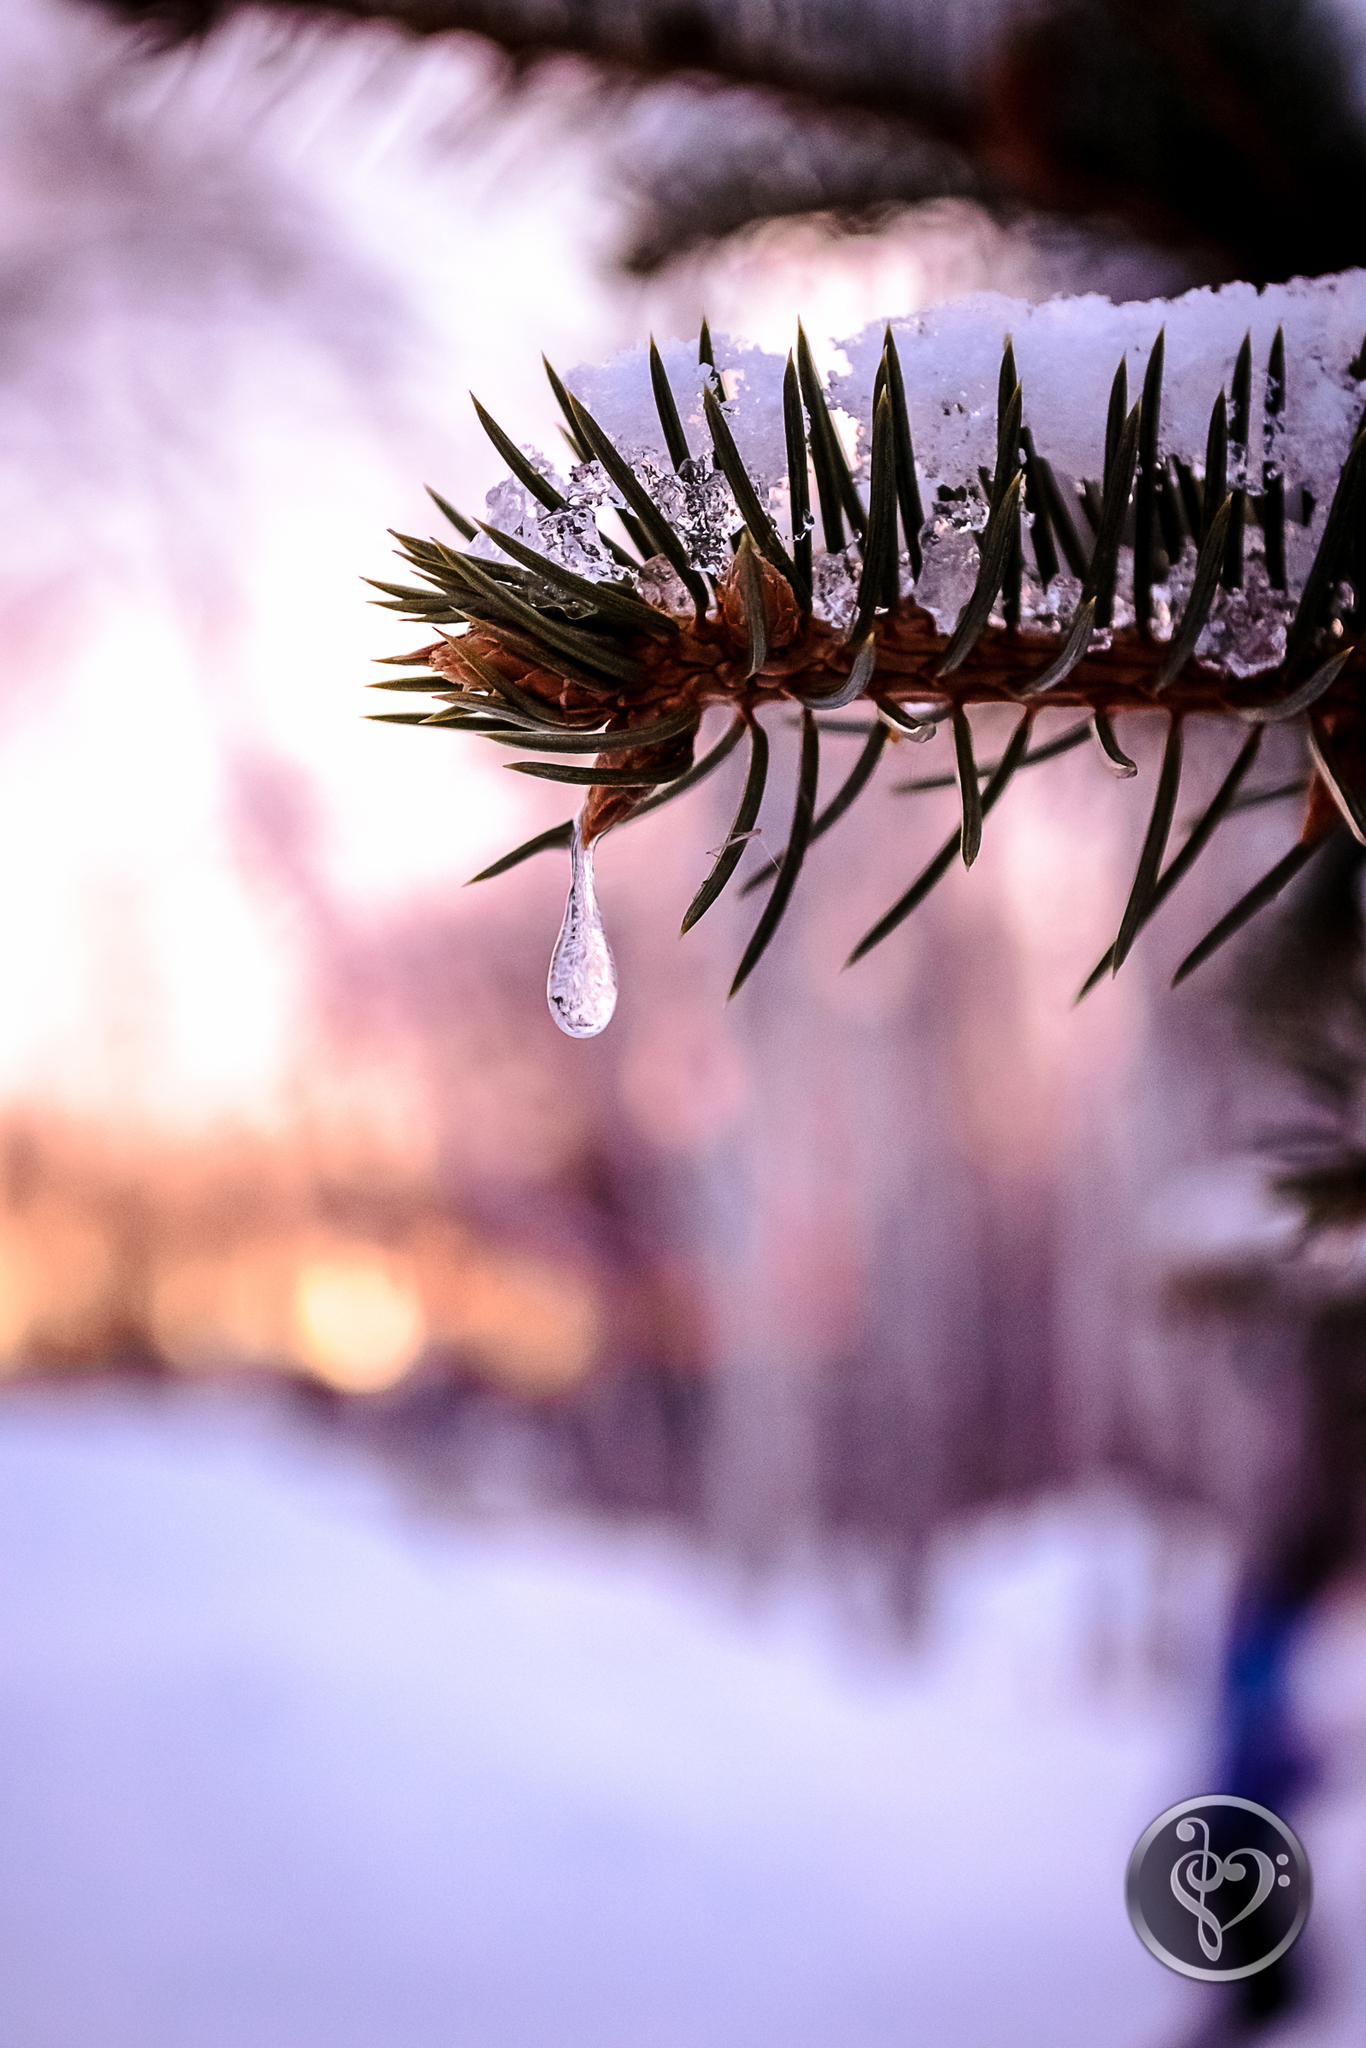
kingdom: Plantae
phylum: Tracheophyta
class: Pinopsida
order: Pinales
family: Pinaceae
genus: Picea
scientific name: Picea abies
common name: Norway spruce
